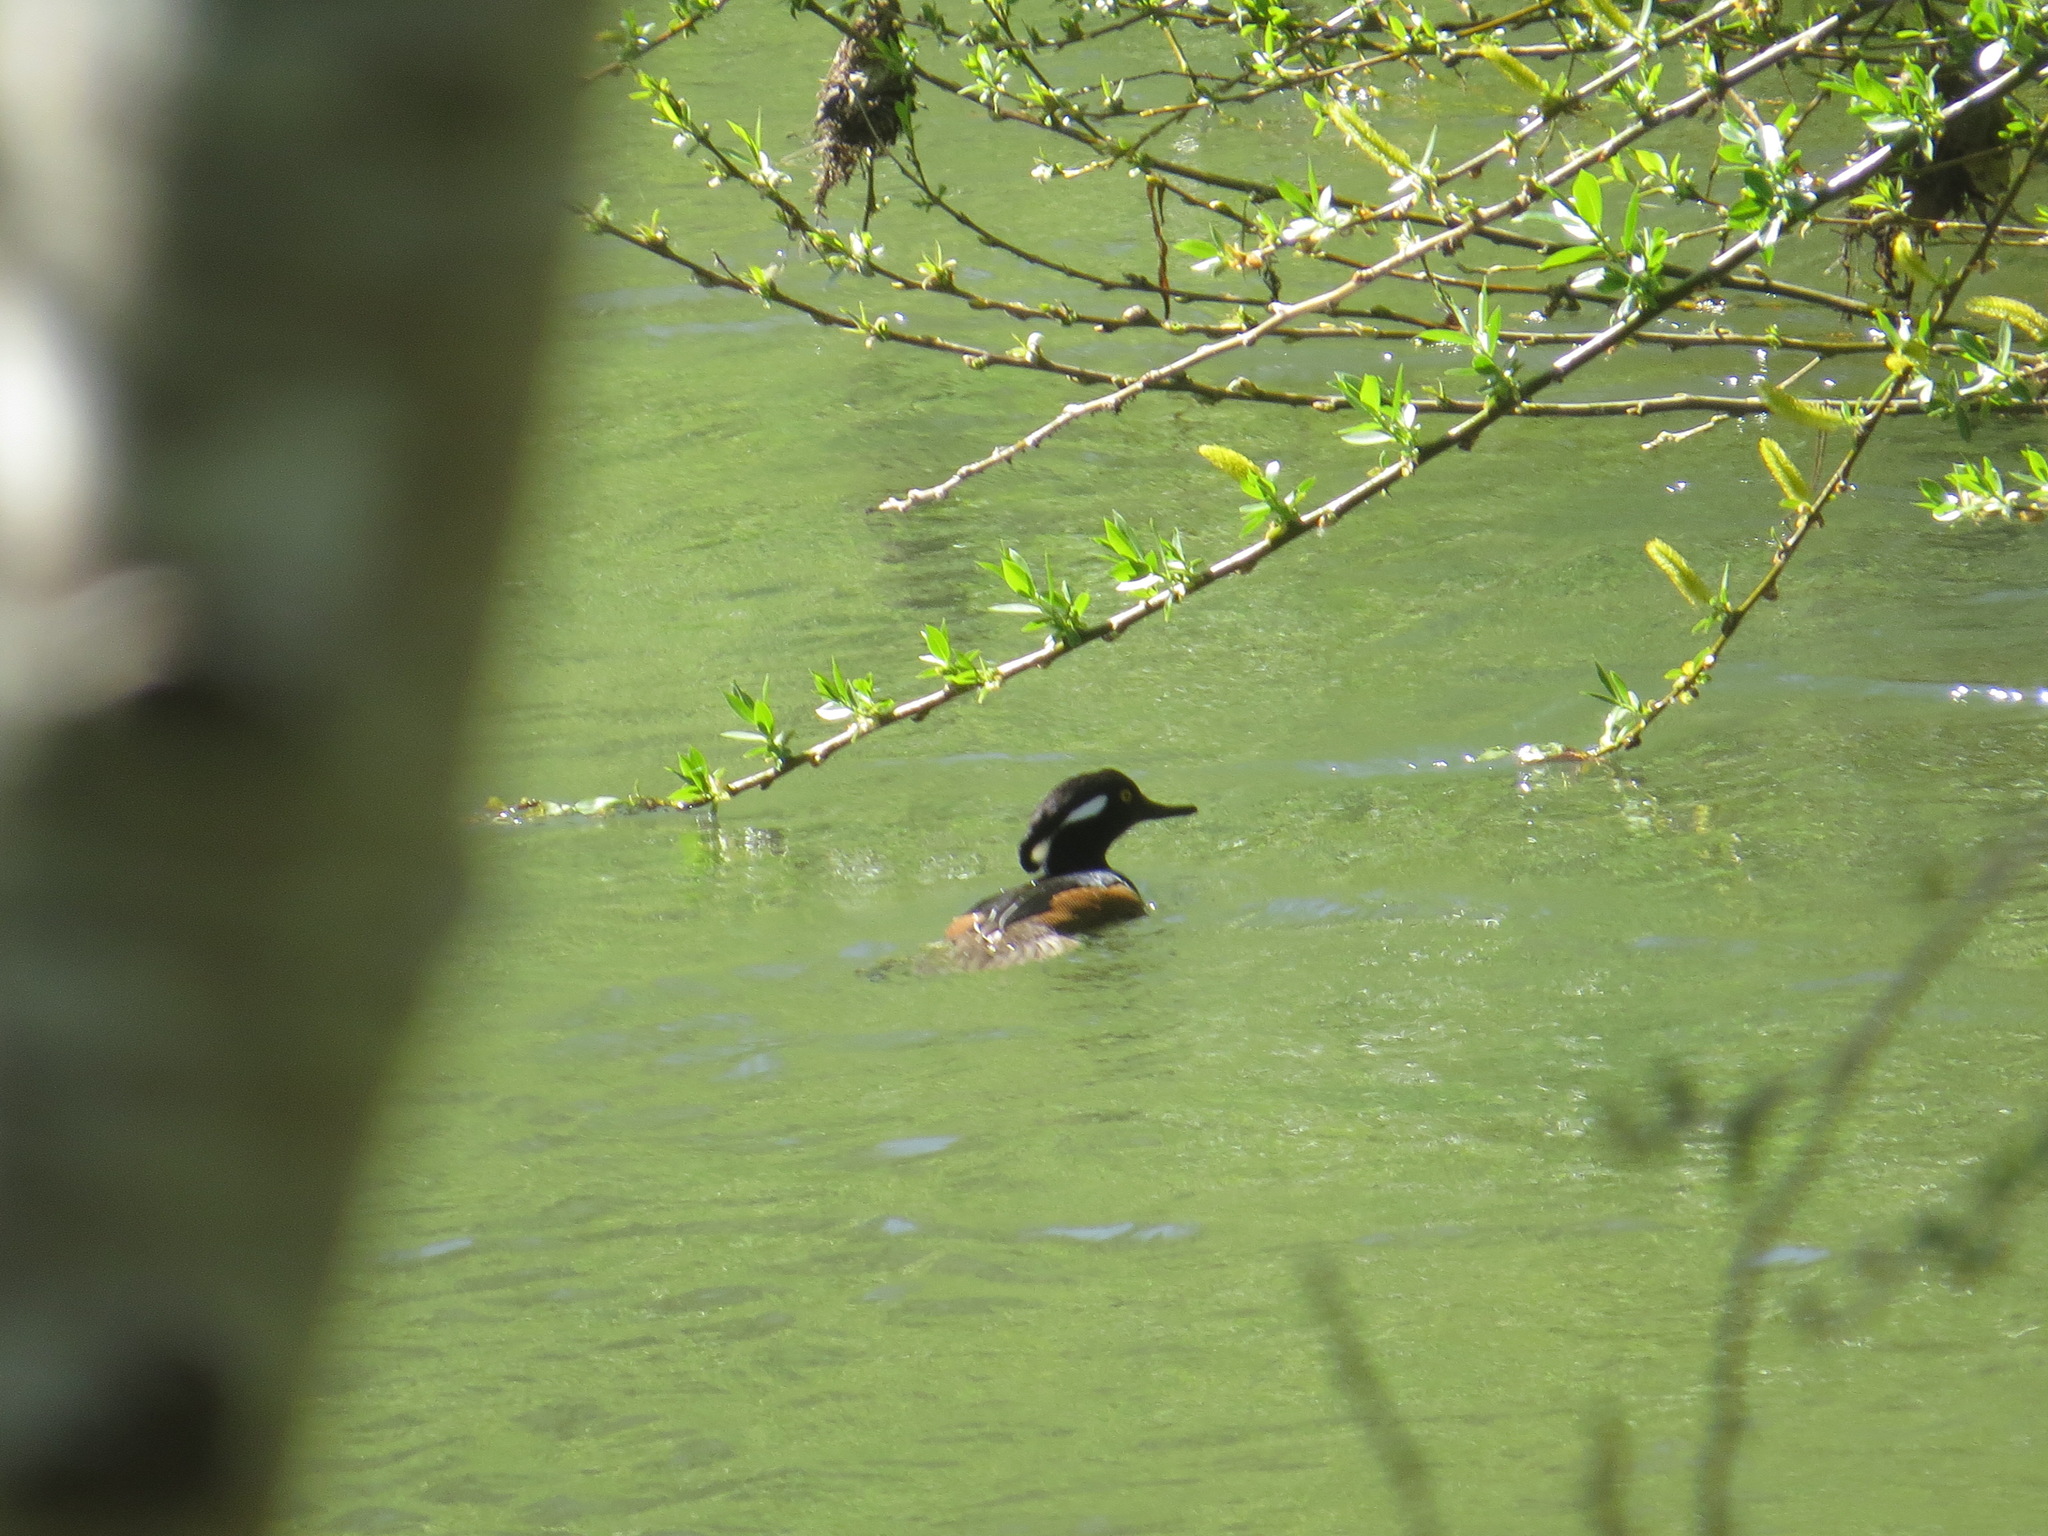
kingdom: Animalia
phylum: Chordata
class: Aves
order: Anseriformes
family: Anatidae
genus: Lophodytes
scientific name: Lophodytes cucullatus
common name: Hooded merganser
